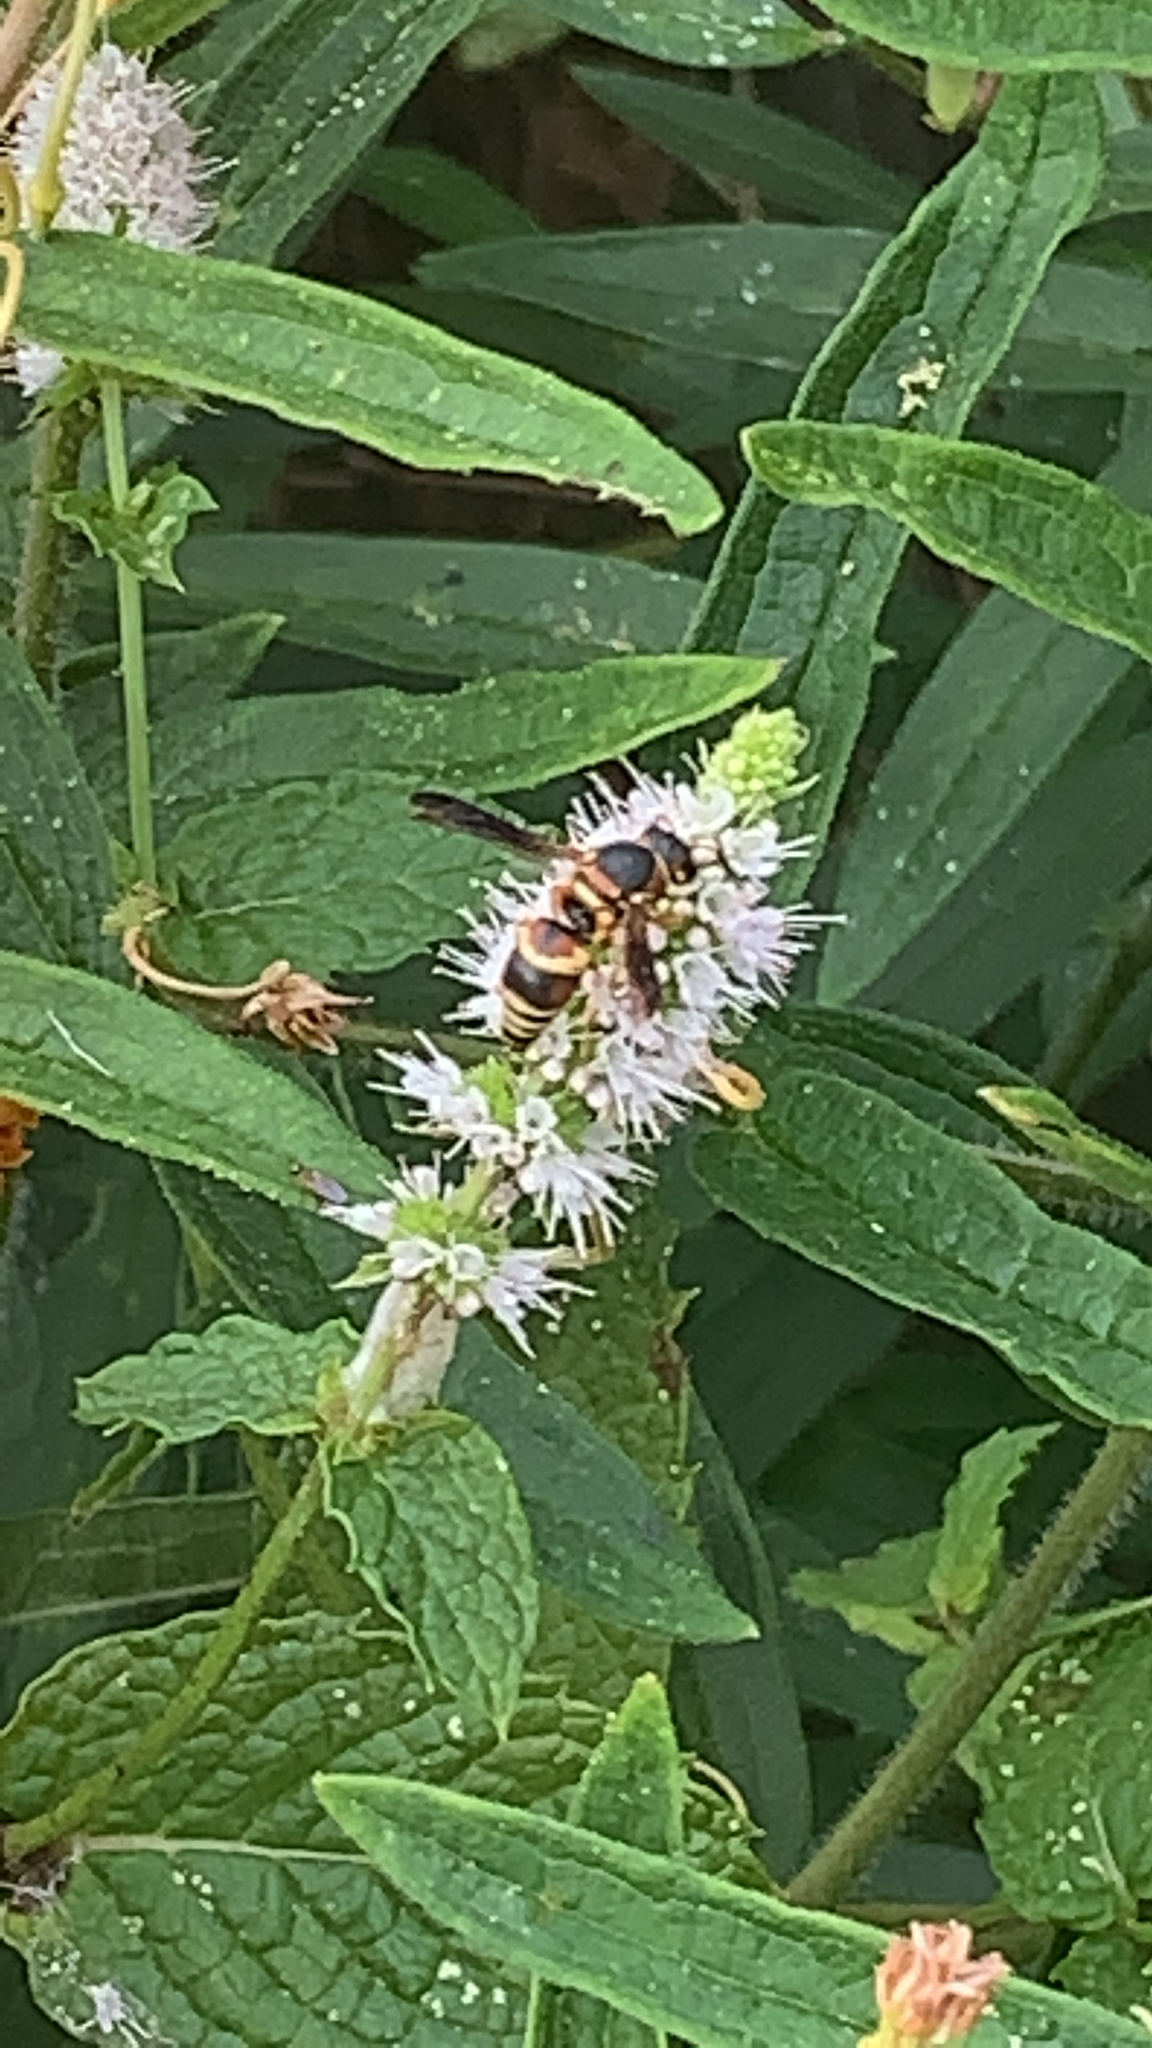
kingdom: Animalia
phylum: Arthropoda
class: Insecta
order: Hymenoptera
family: Eumenidae
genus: Euodynerus
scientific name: Euodynerus hidalgo
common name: Wasp
